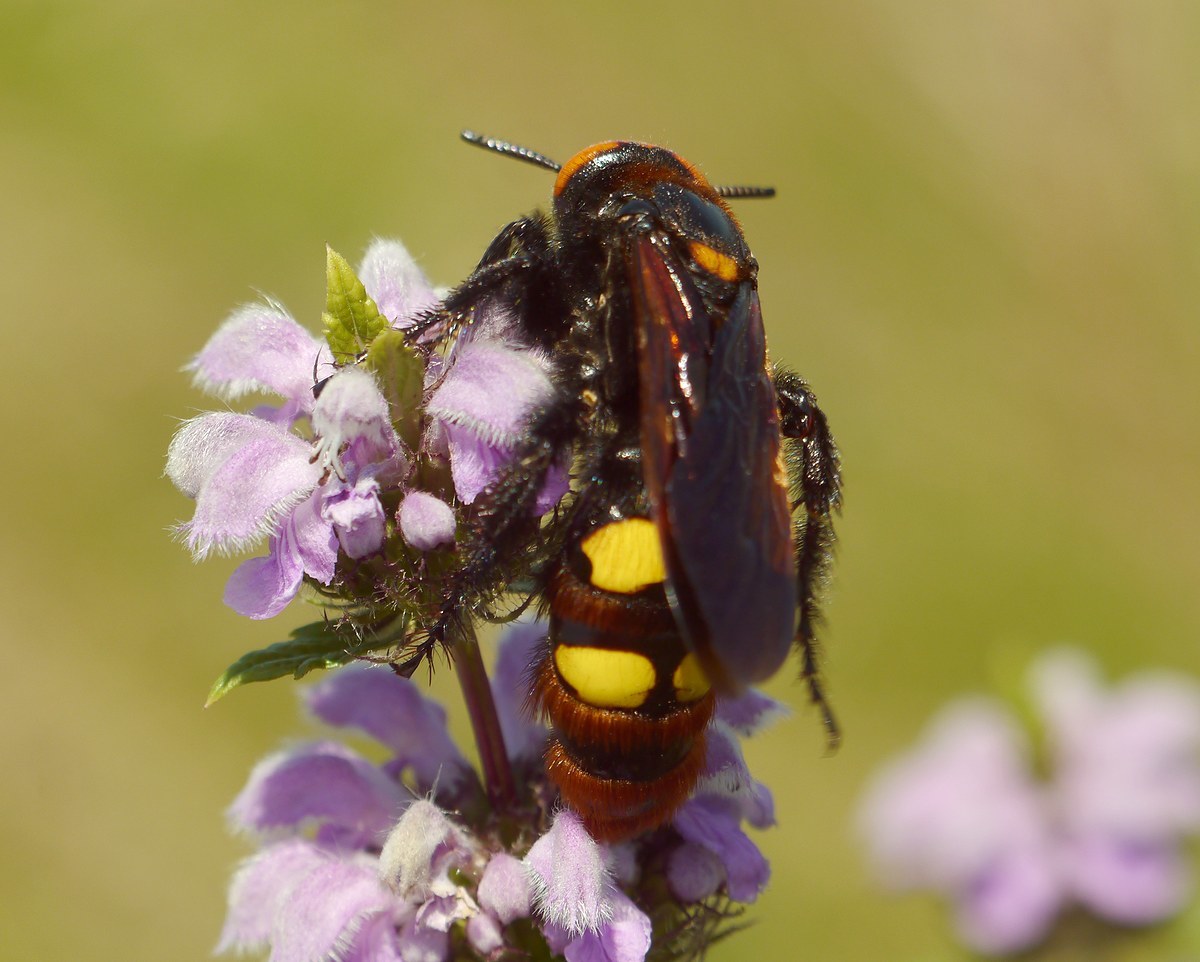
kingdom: Animalia
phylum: Arthropoda
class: Insecta
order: Hymenoptera
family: Scoliidae
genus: Megascolia
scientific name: Megascolia maculata
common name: Mammoth wasp
